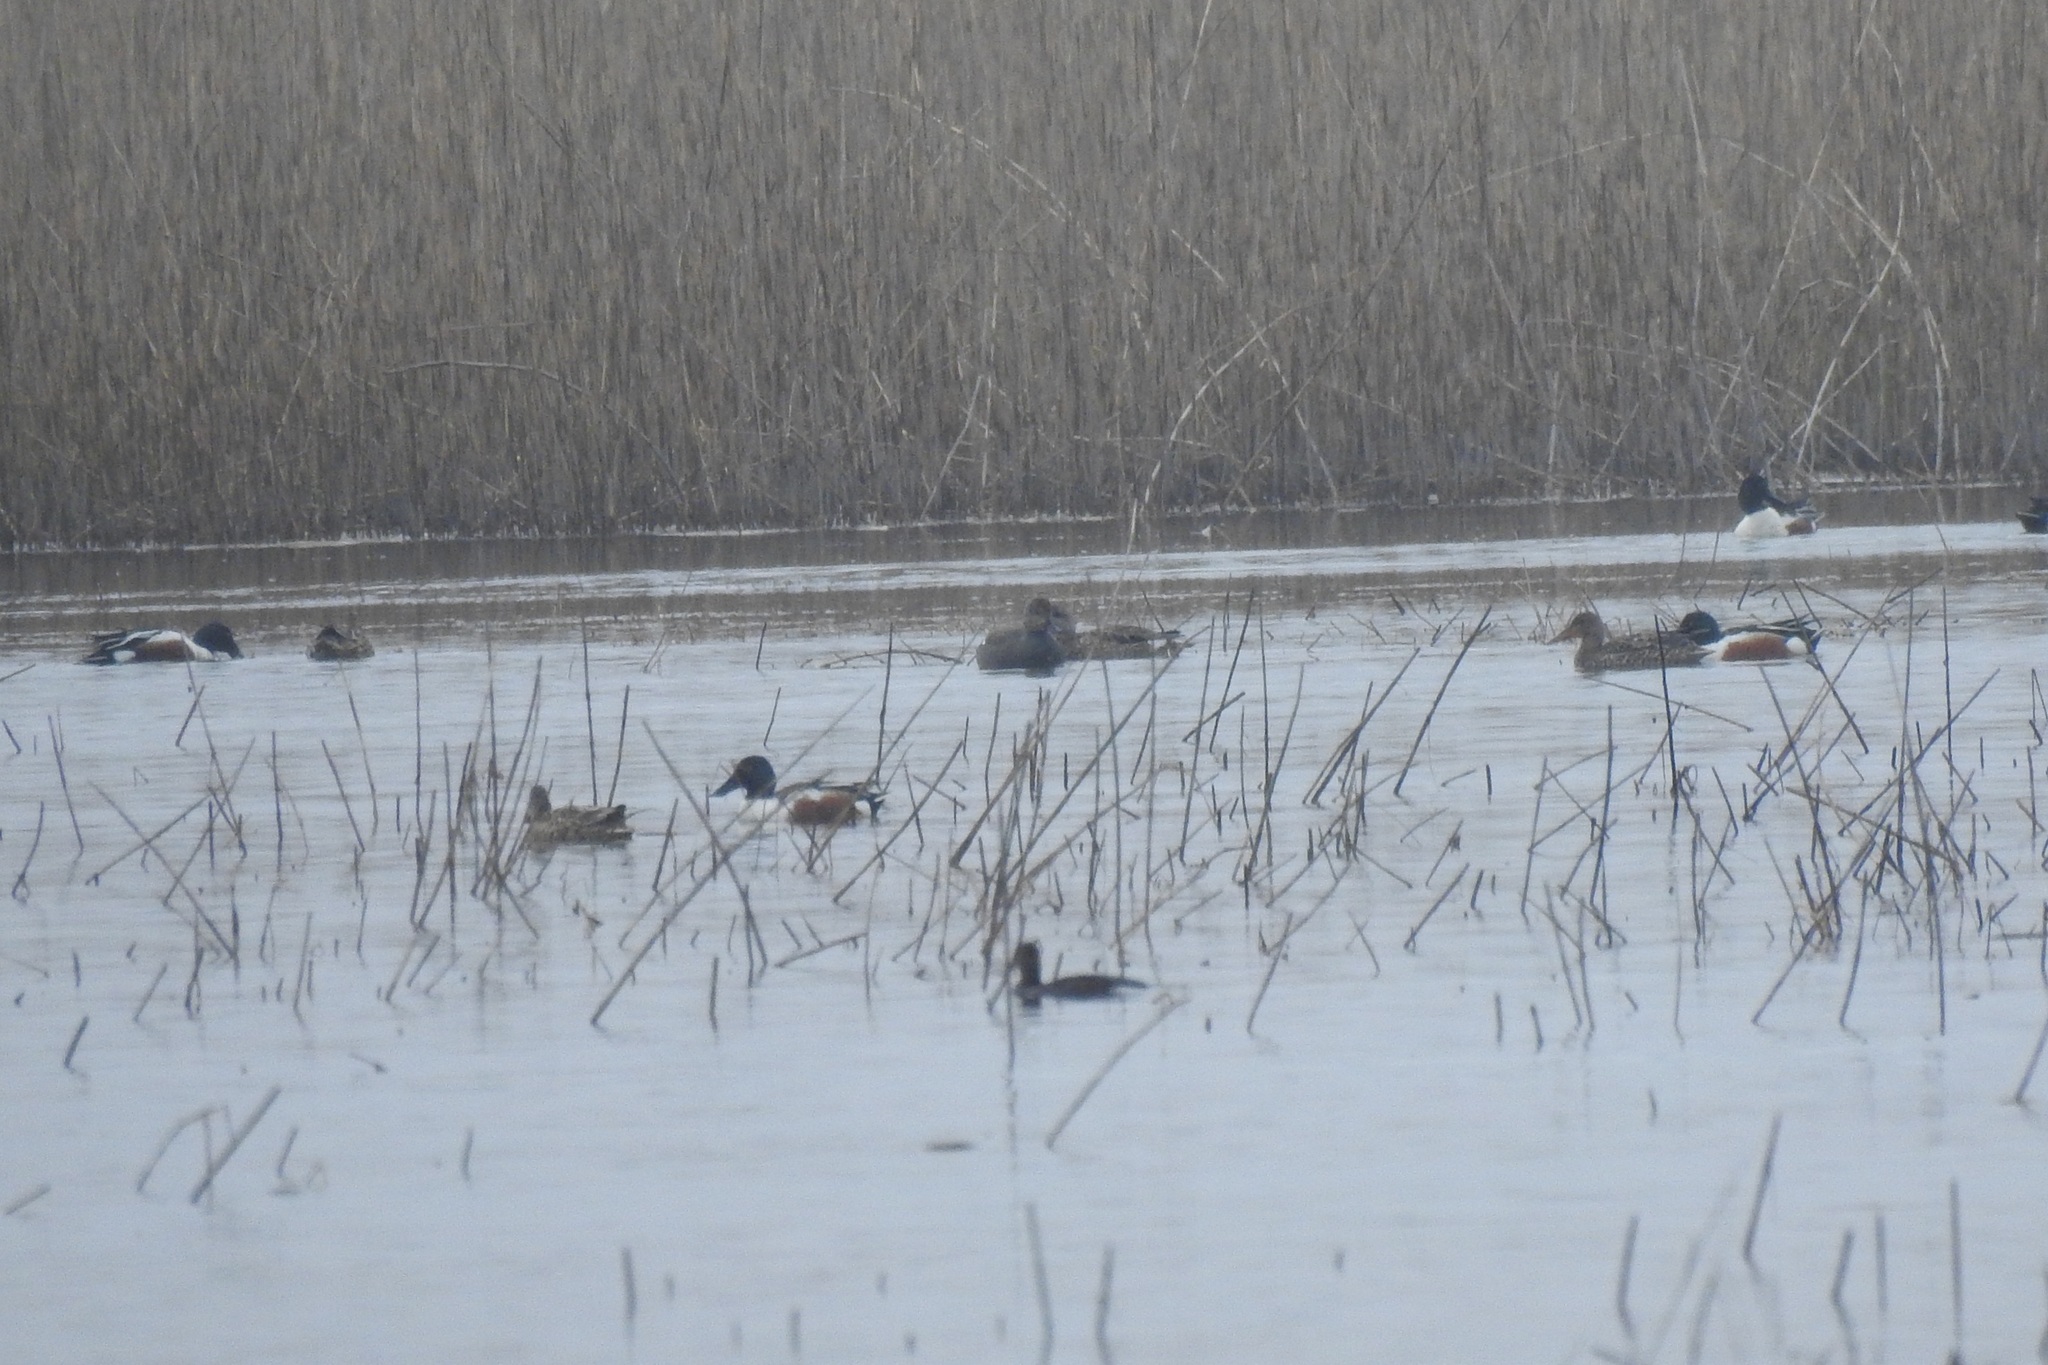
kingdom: Animalia
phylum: Chordata
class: Aves
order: Anseriformes
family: Anatidae
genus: Spatula
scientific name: Spatula clypeata
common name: Northern shoveler
